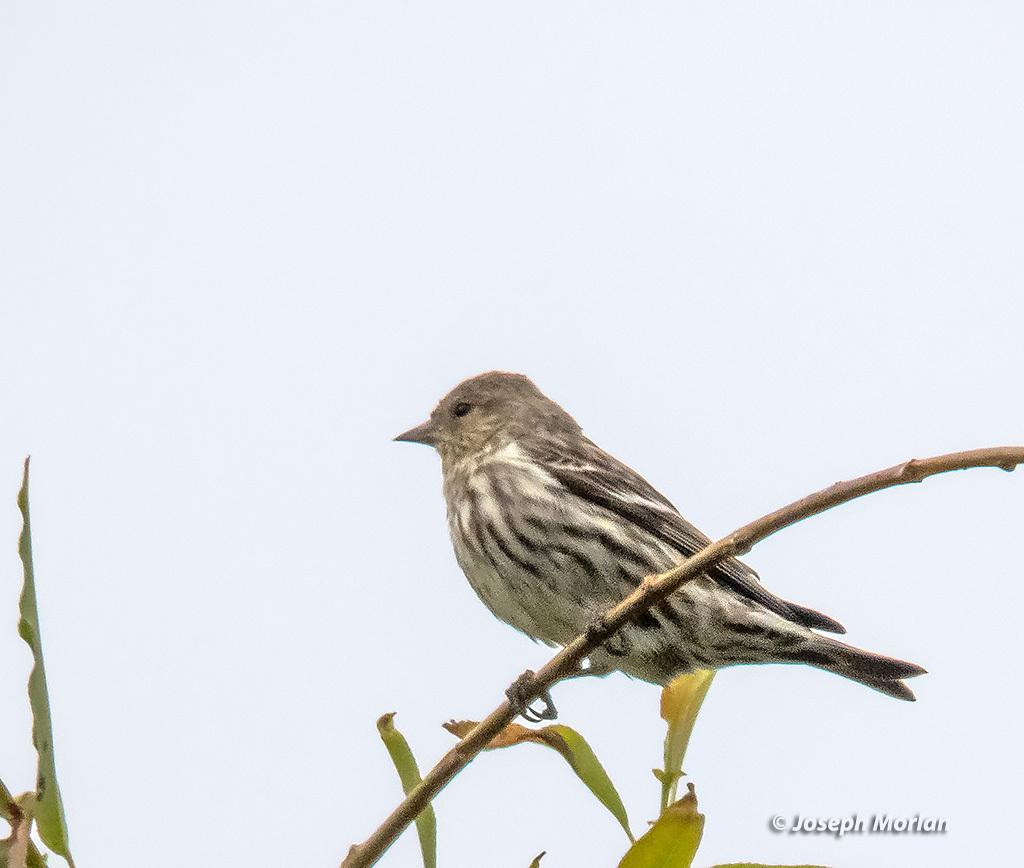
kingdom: Animalia
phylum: Chordata
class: Aves
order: Passeriformes
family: Fringillidae
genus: Spinus
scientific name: Spinus pinus
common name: Pine siskin
